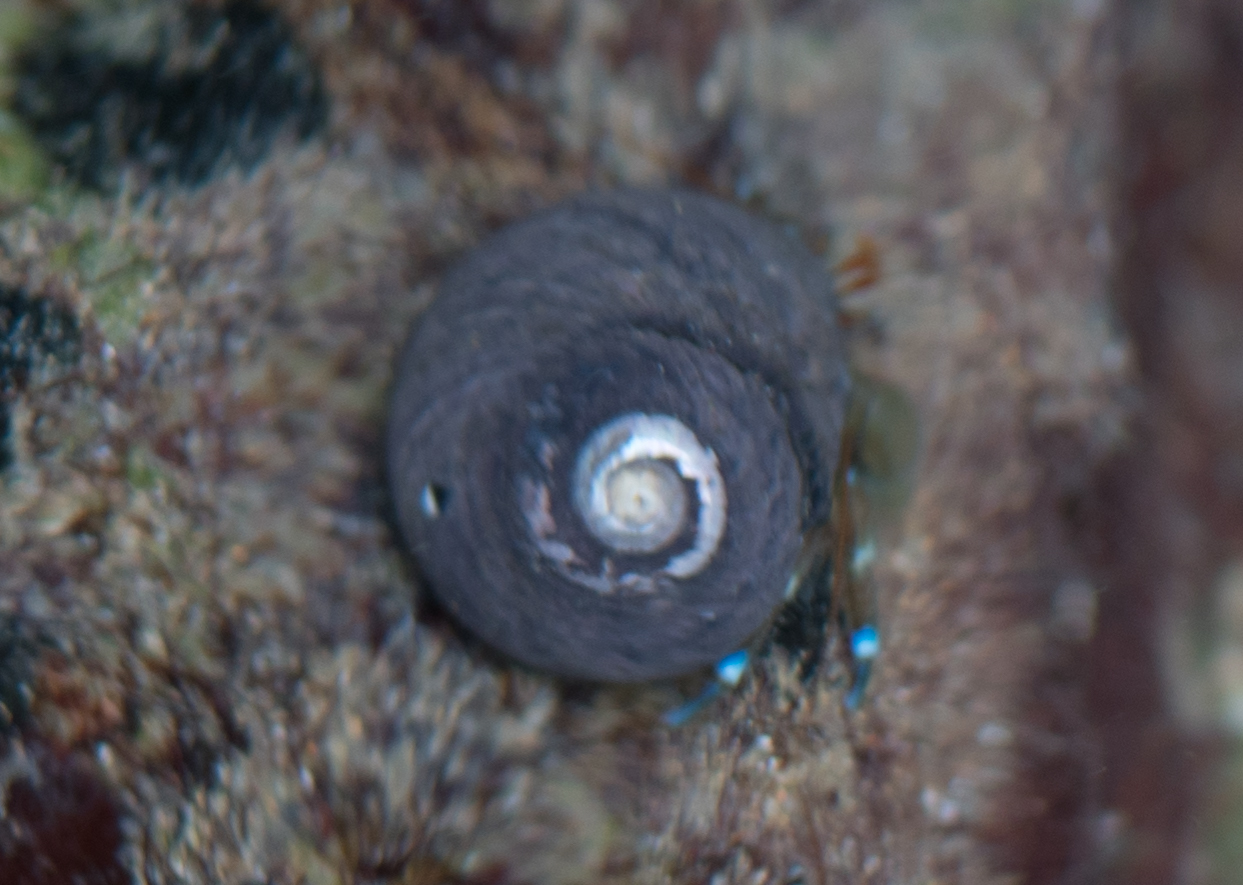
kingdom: Animalia
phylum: Arthropoda
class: Malacostraca
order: Decapoda
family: Paguridae
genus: Pagurus
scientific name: Pagurus samuelis
